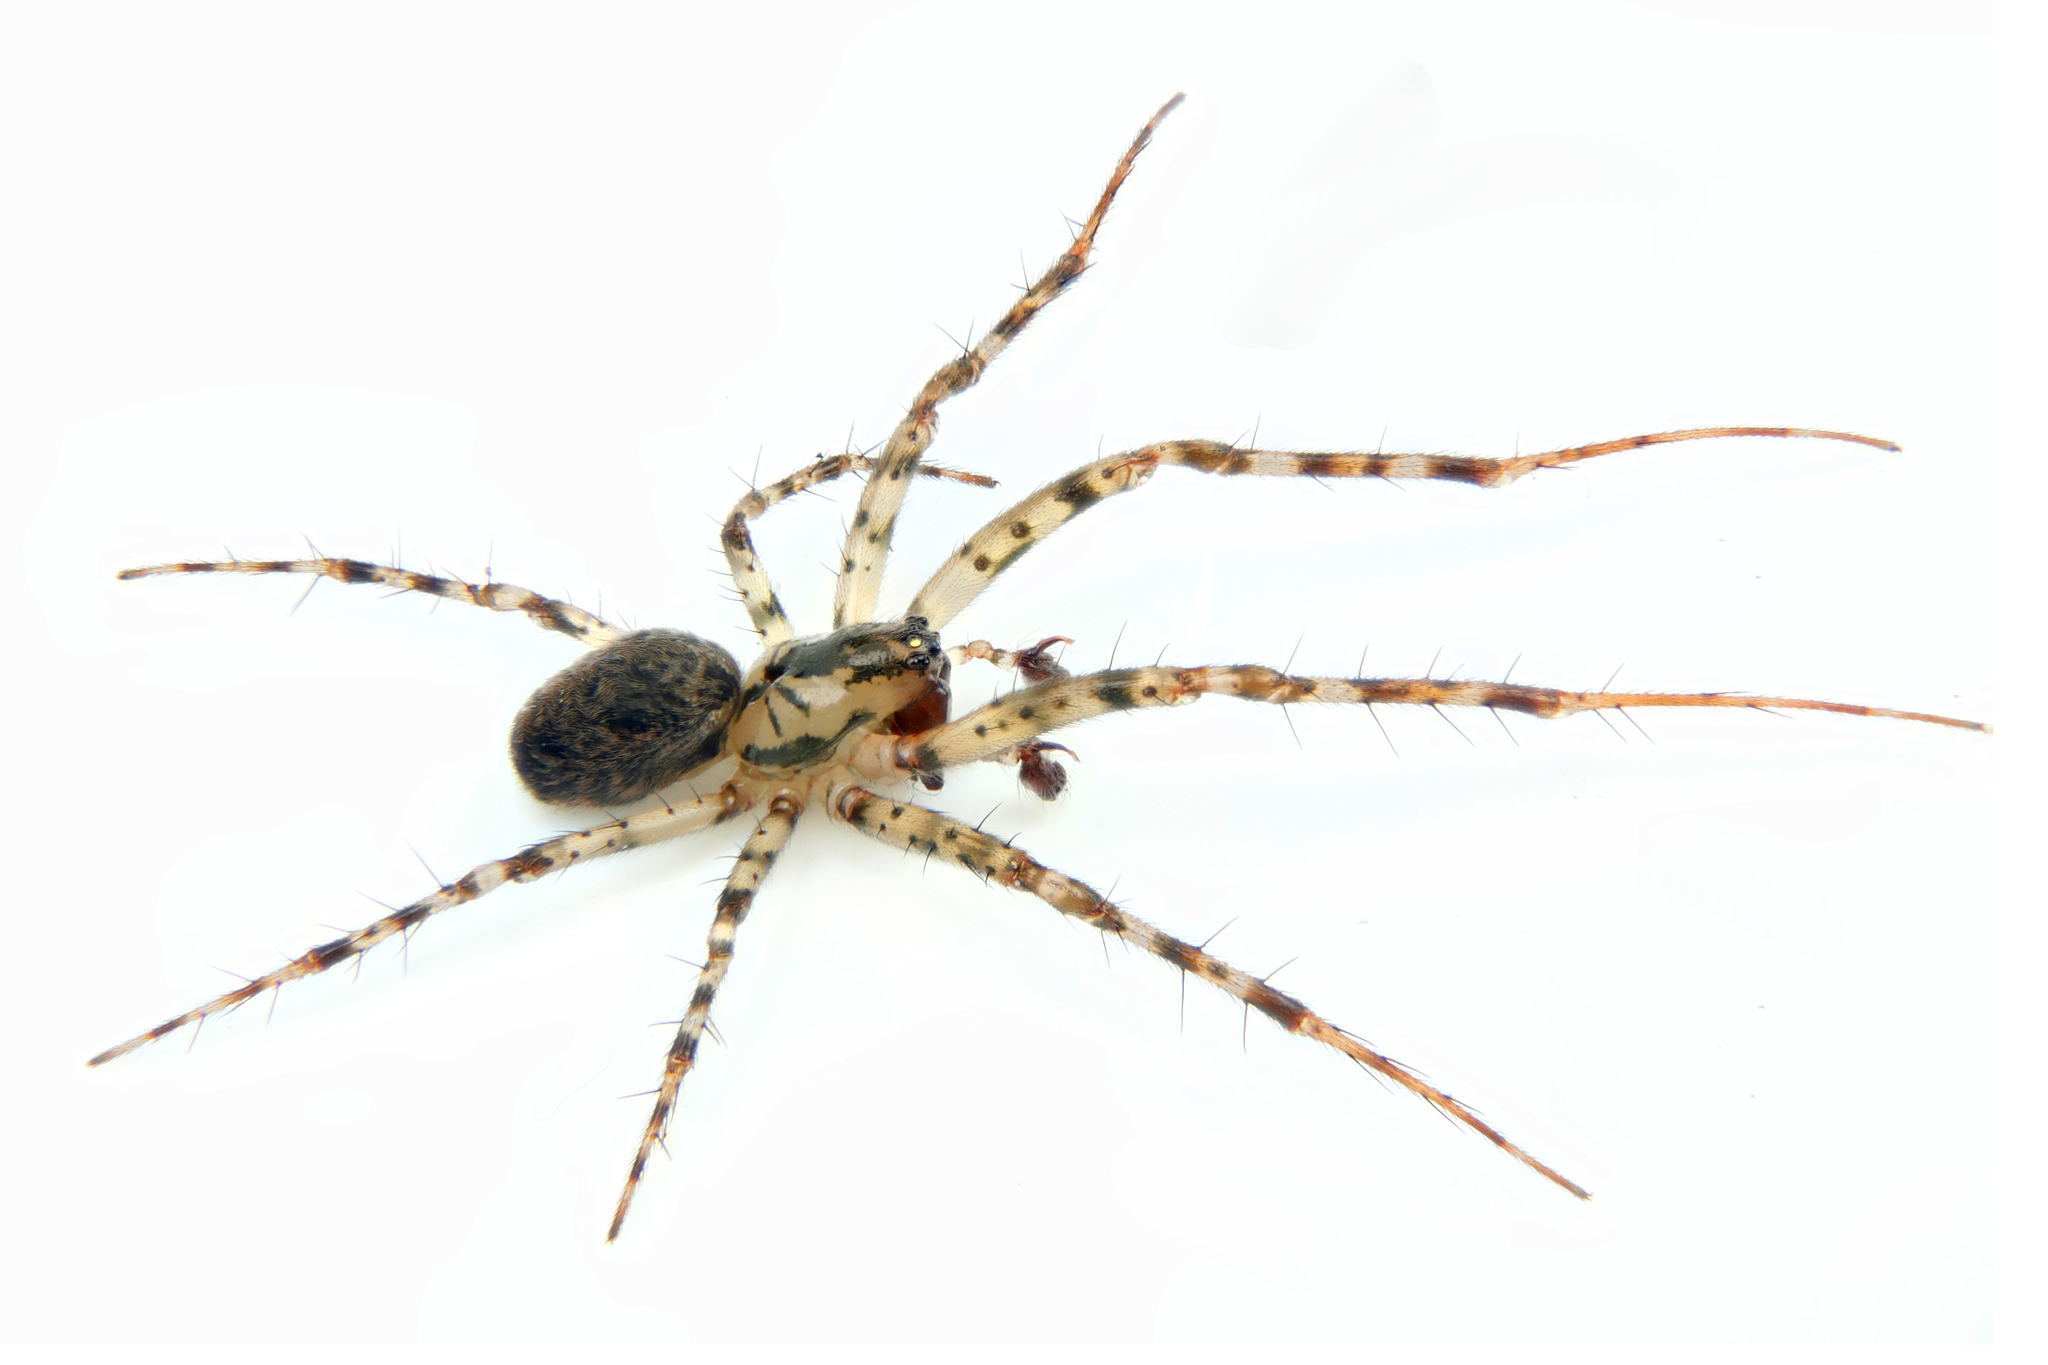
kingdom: Animalia
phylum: Arthropoda
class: Arachnida
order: Araneae
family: Tetragnathidae
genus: Metellina
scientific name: Metellina merianae
